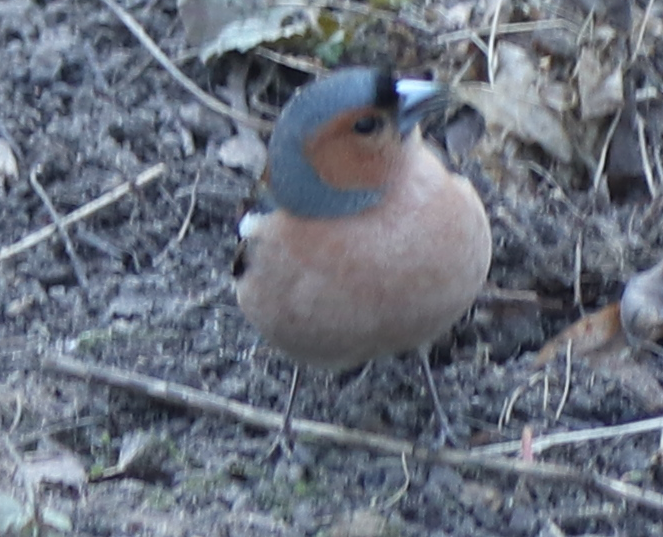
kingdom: Animalia
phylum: Chordata
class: Aves
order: Passeriformes
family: Fringillidae
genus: Fringilla
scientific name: Fringilla coelebs
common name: Common chaffinch
